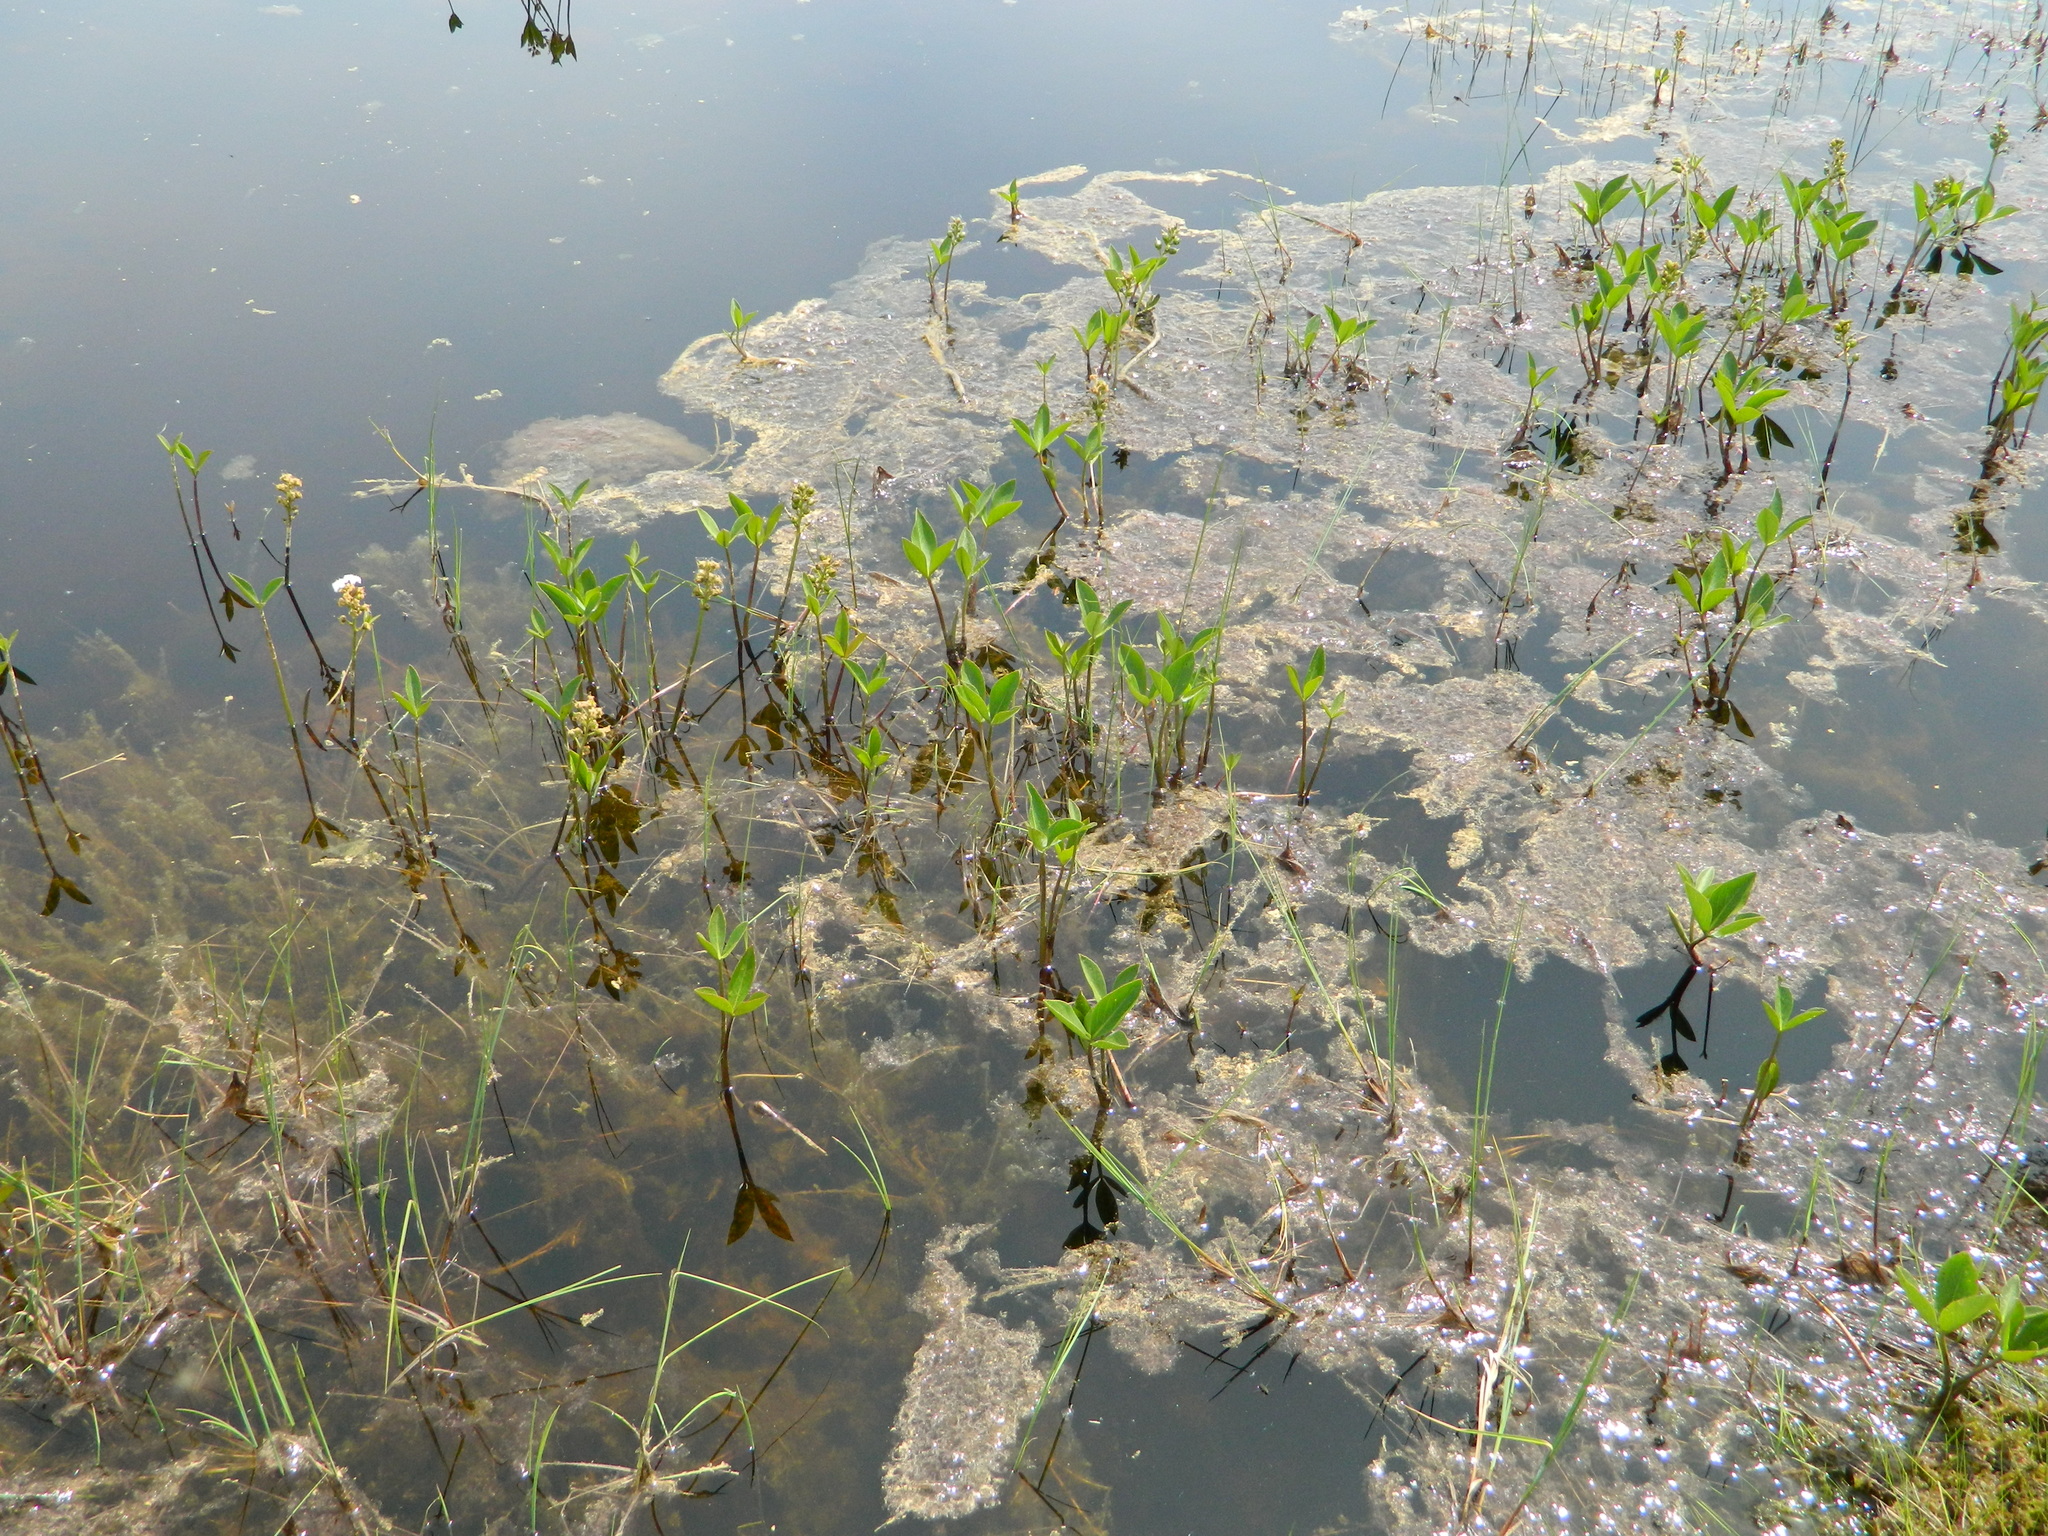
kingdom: Plantae
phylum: Tracheophyta
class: Magnoliopsida
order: Asterales
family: Menyanthaceae
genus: Menyanthes
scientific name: Menyanthes trifoliata
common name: Bogbean
